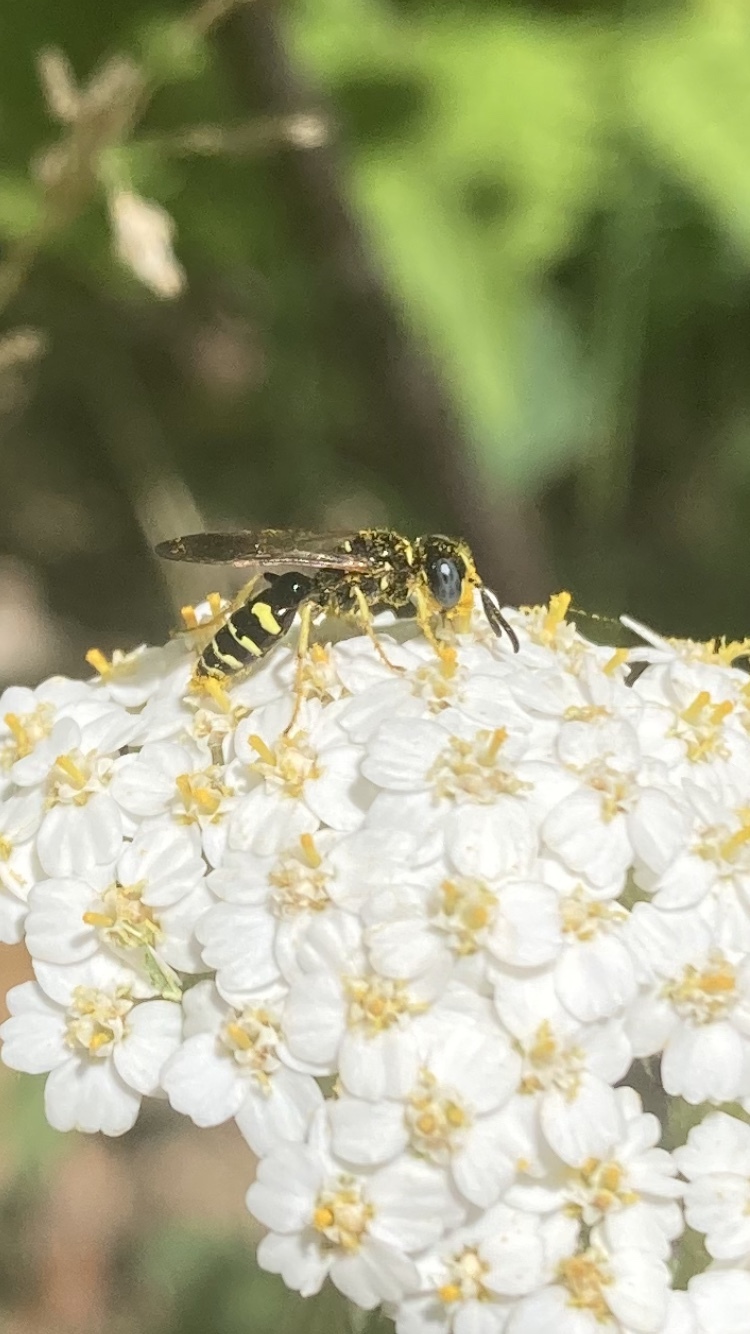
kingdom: Animalia
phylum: Arthropoda
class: Insecta
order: Hymenoptera
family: Crabronidae
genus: Philanthus
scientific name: Philanthus bilunatus
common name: Two moons beewolf
